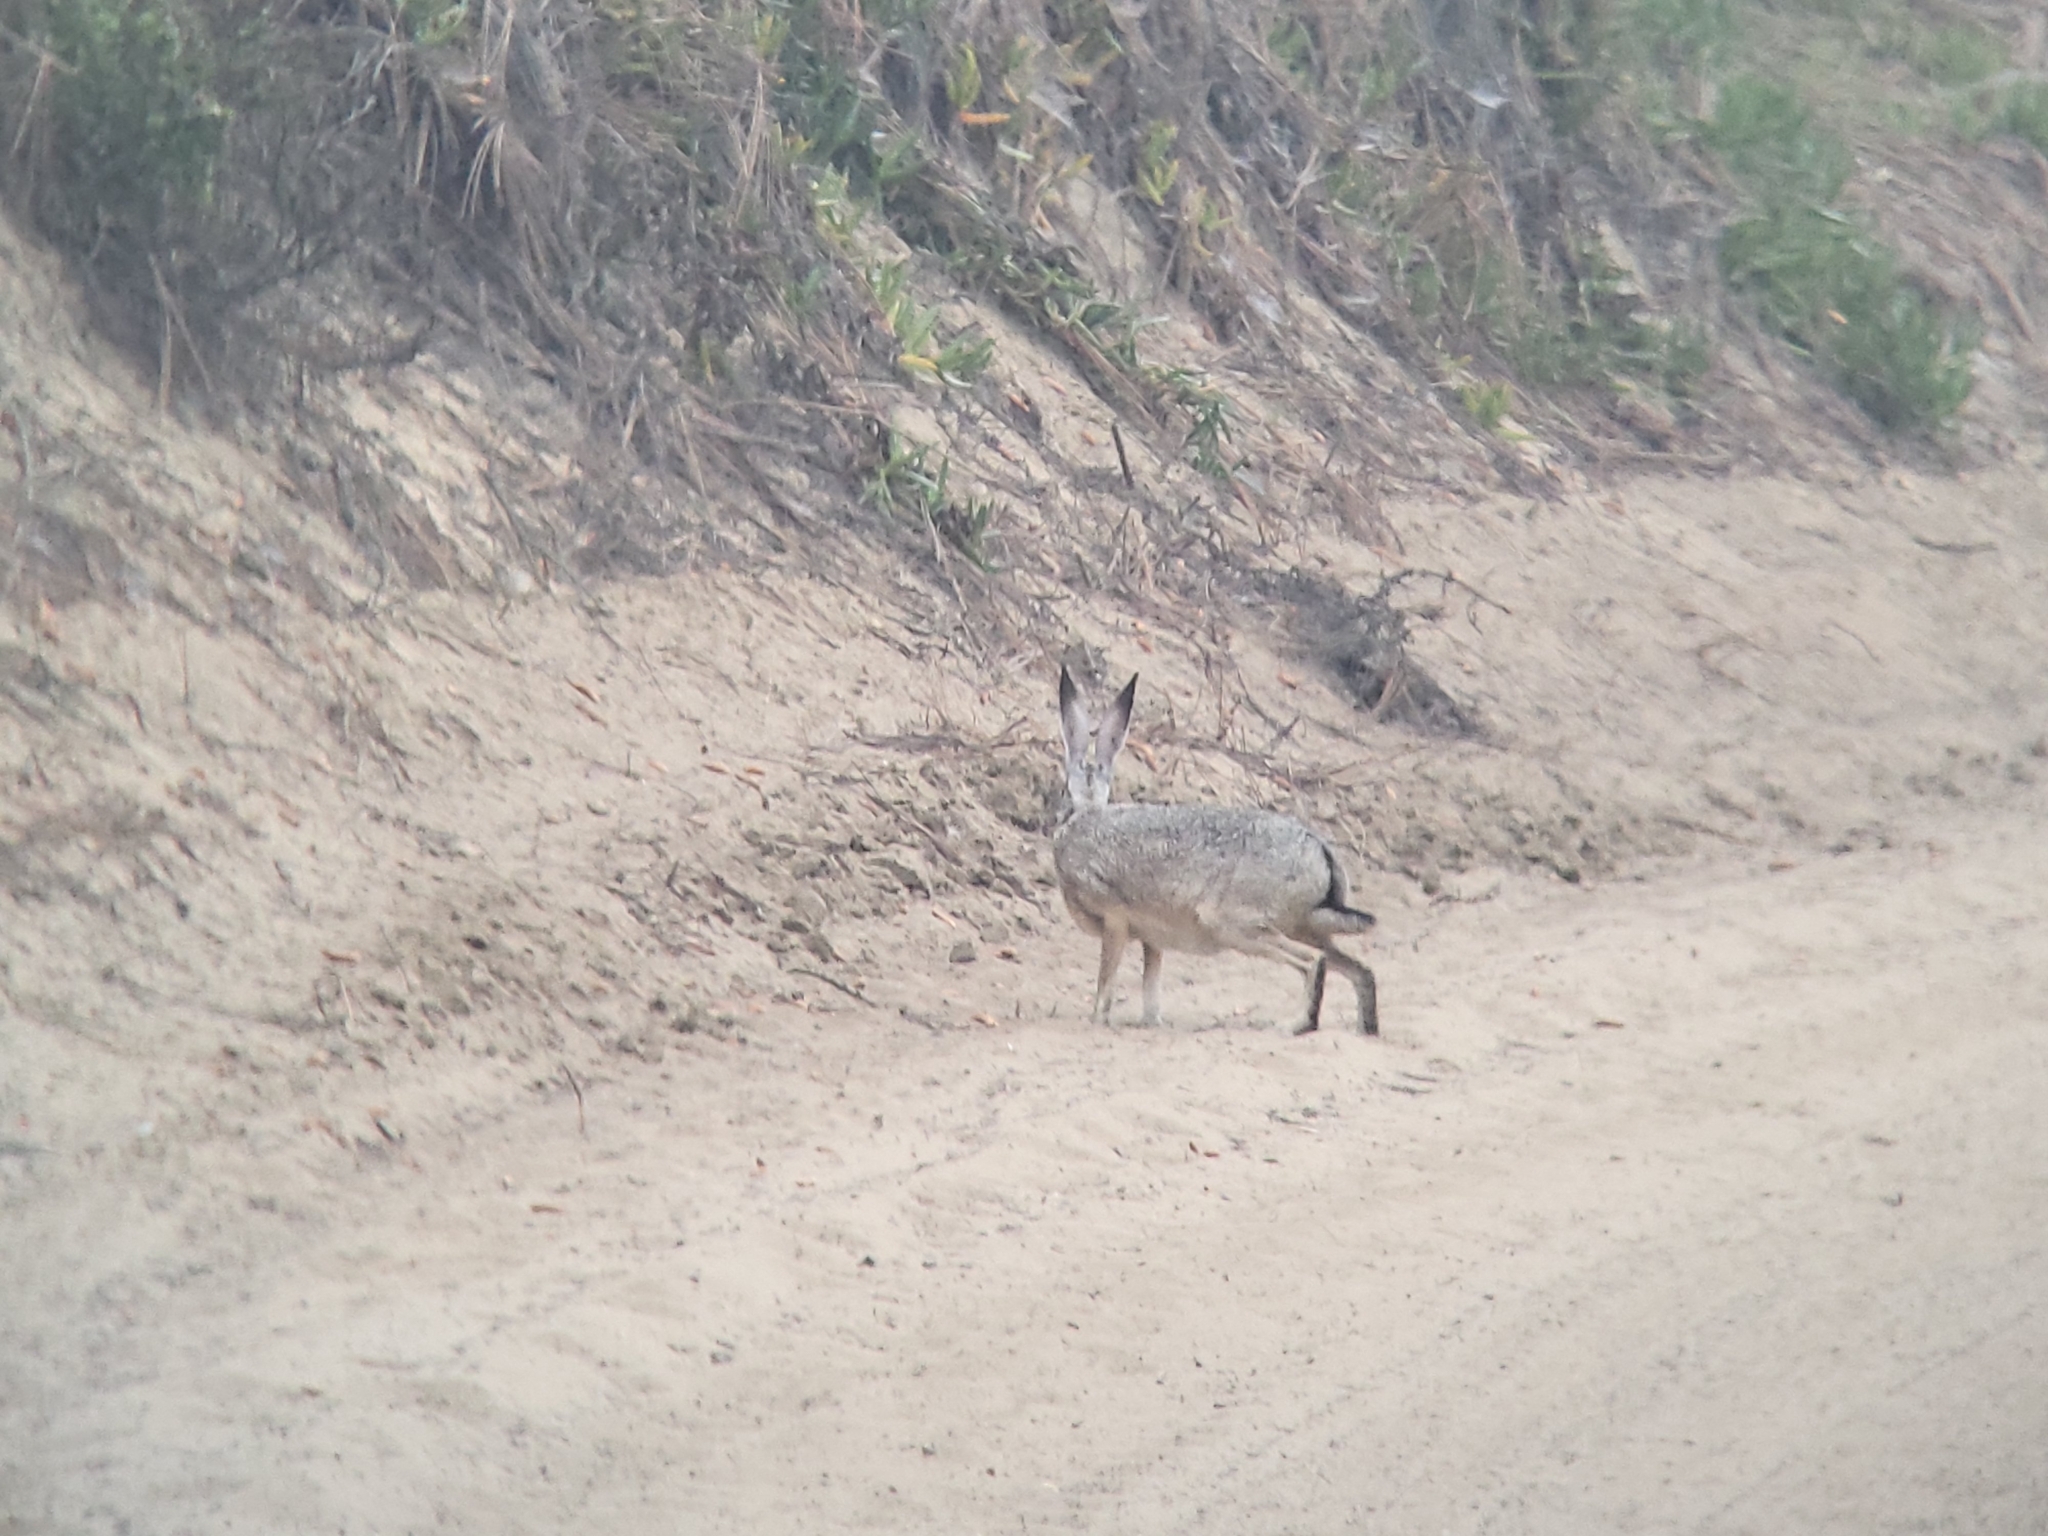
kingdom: Animalia
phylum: Chordata
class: Mammalia
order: Lagomorpha
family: Leporidae
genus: Lepus
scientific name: Lepus californicus
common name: Black-tailed jackrabbit
